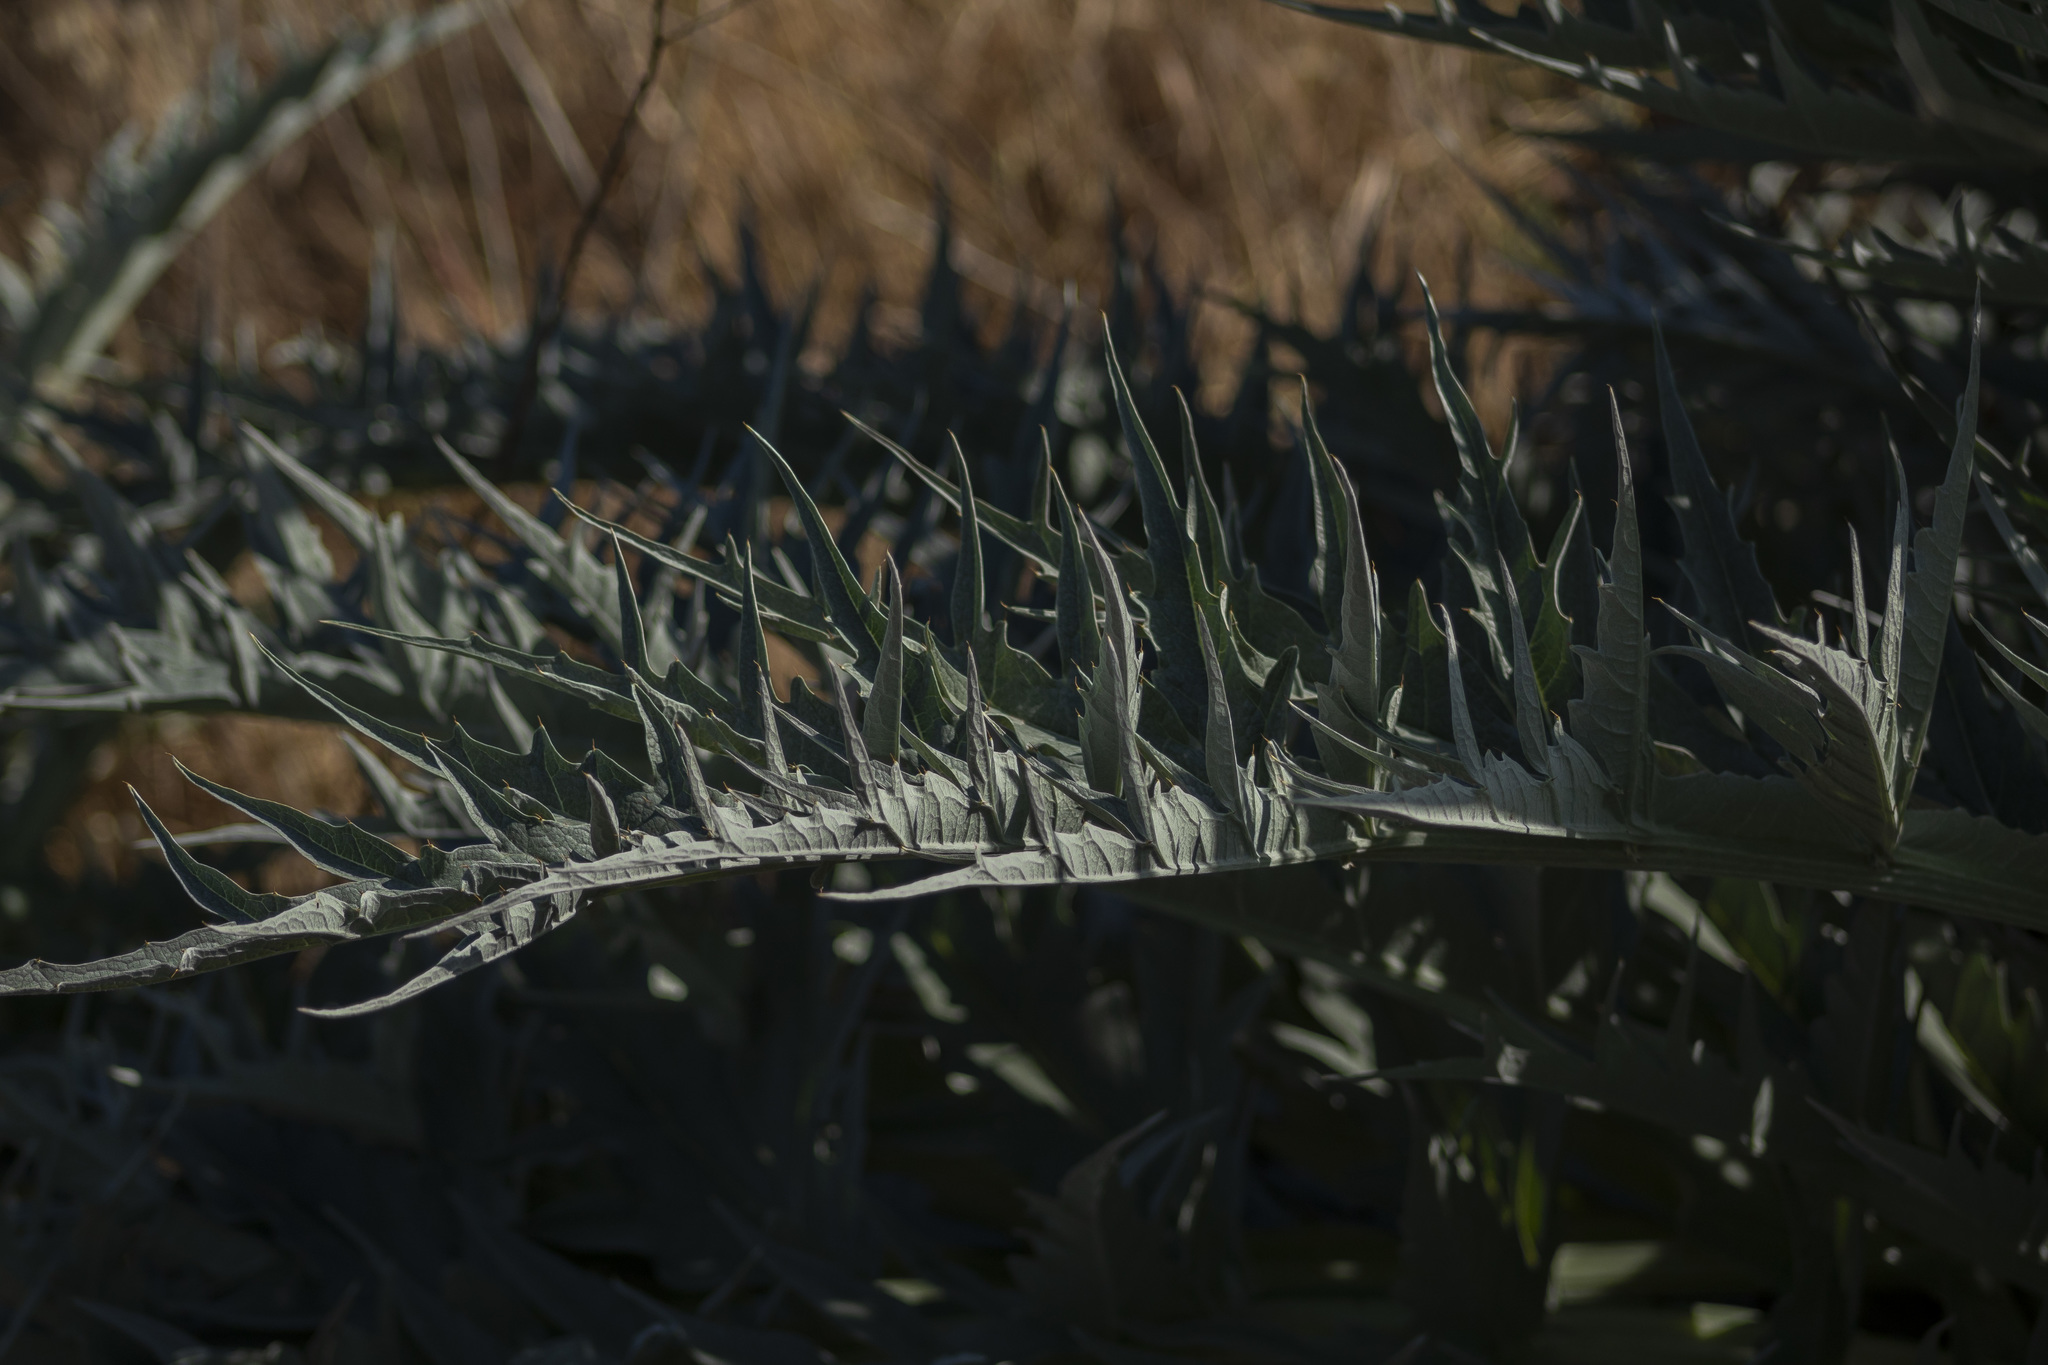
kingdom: Plantae
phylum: Tracheophyta
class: Magnoliopsida
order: Asterales
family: Asteraceae
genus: Cynara
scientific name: Cynara cardunculus
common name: Globe artichoke
